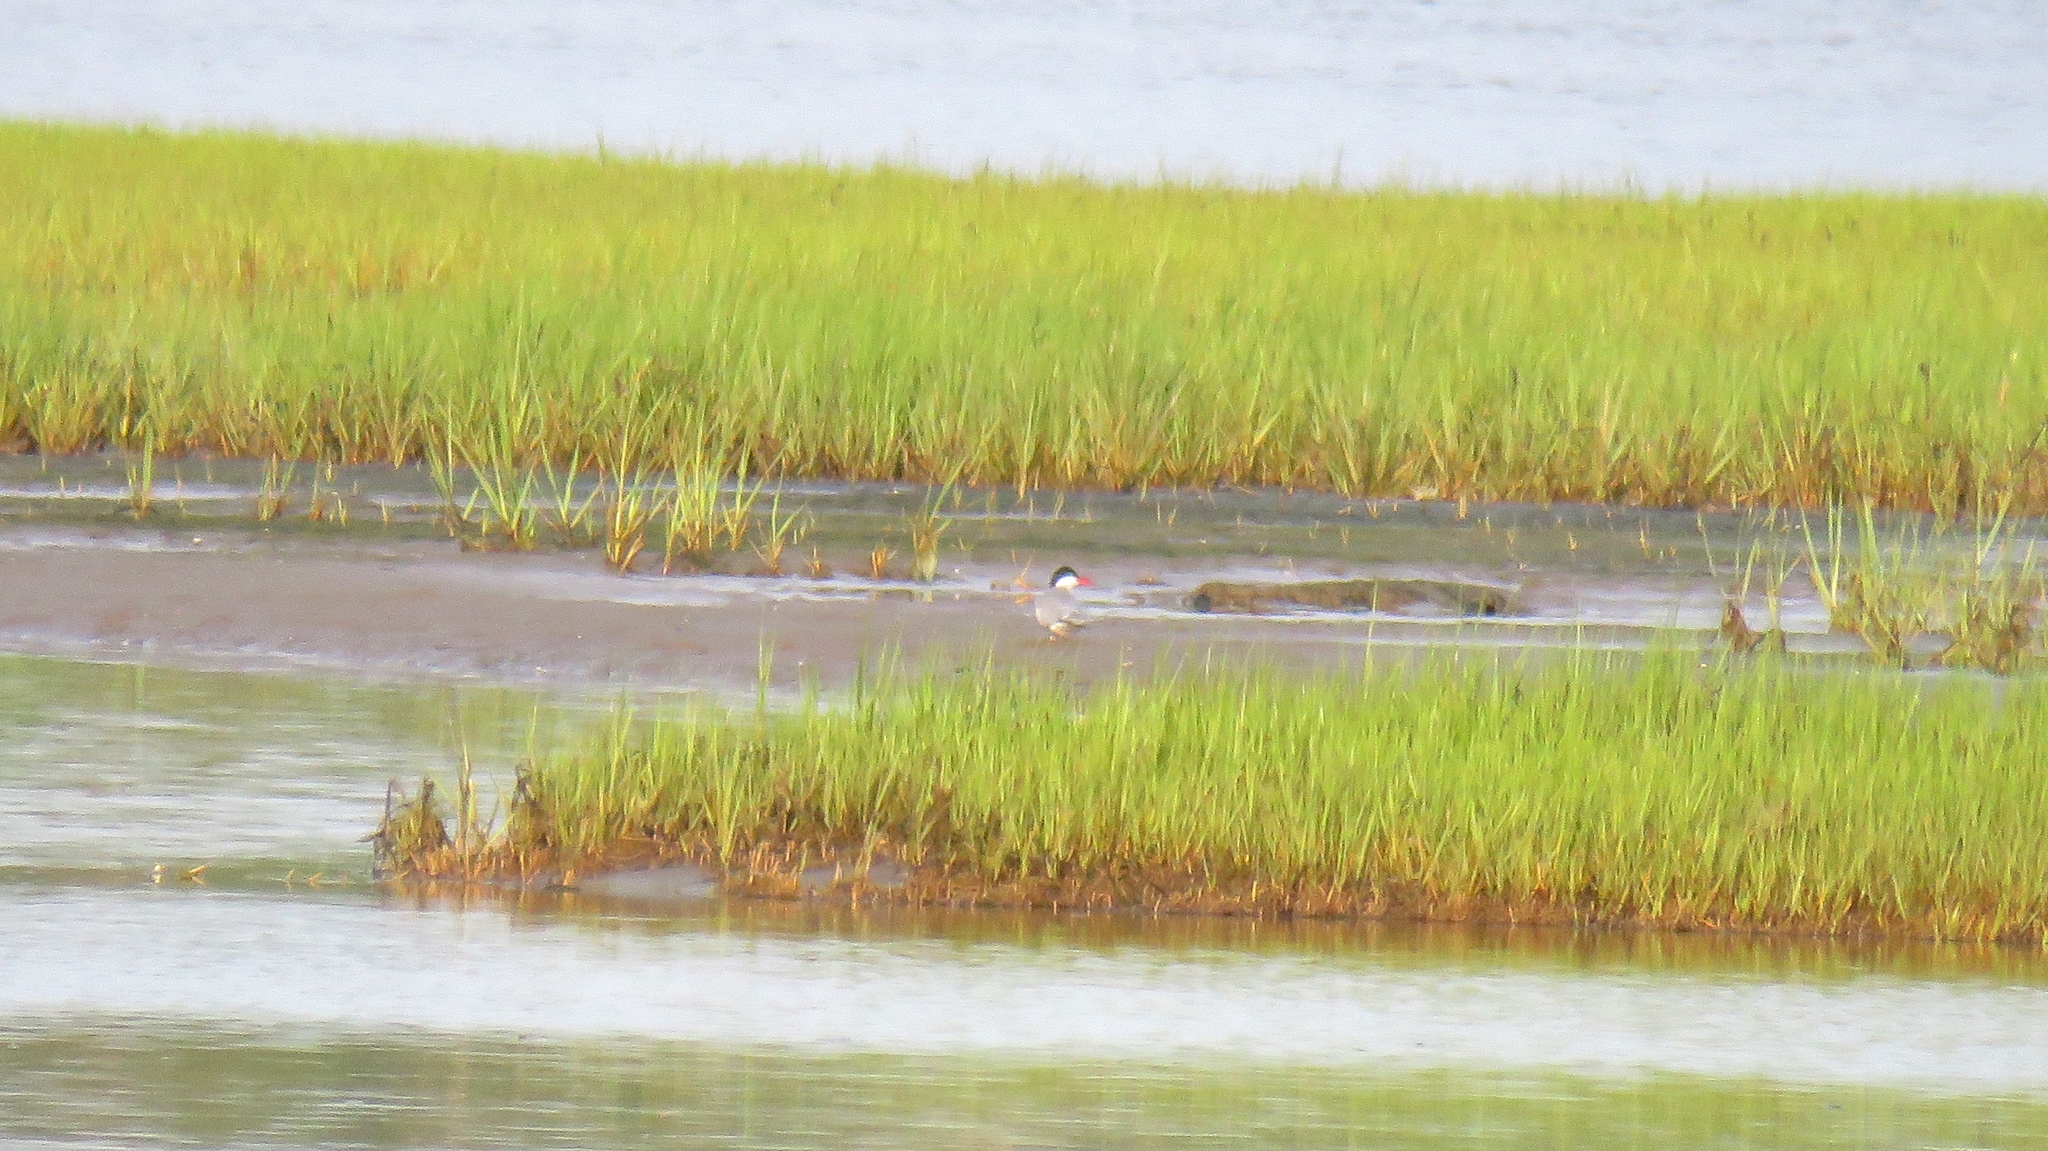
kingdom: Animalia
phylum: Chordata
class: Aves
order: Charadriiformes
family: Laridae
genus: Sterna
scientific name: Sterna paradisaea
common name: Arctic tern
